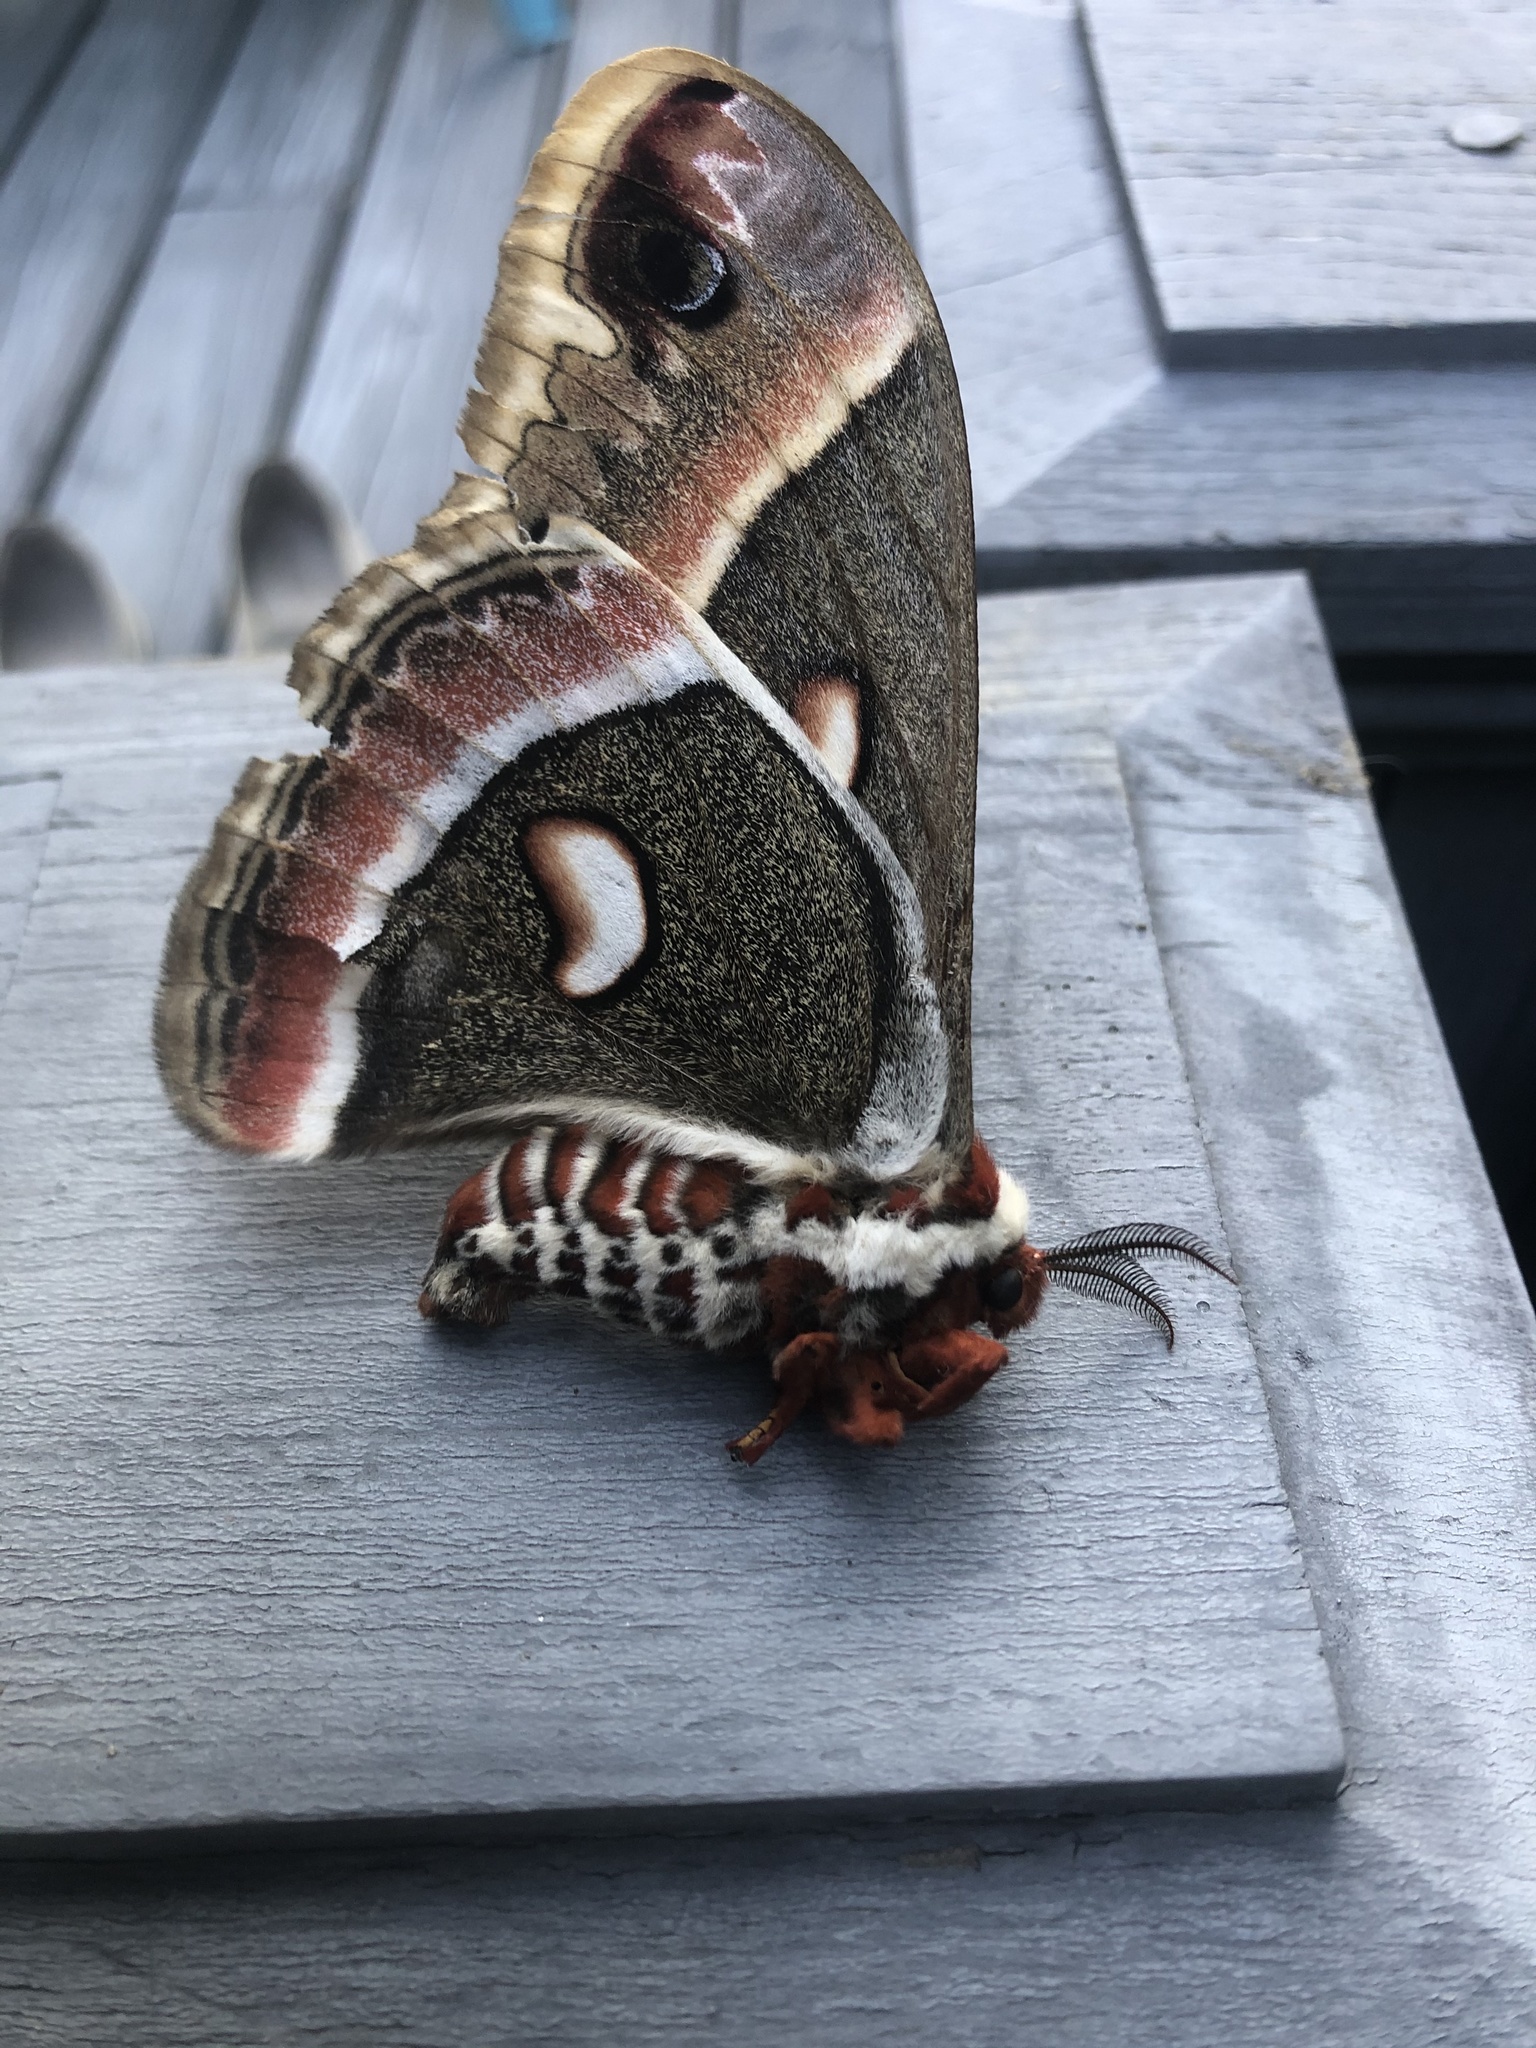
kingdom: Animalia
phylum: Arthropoda
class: Insecta
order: Lepidoptera
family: Saturniidae
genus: Hyalophora
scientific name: Hyalophora cecropia
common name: Cecropia silkmoth
